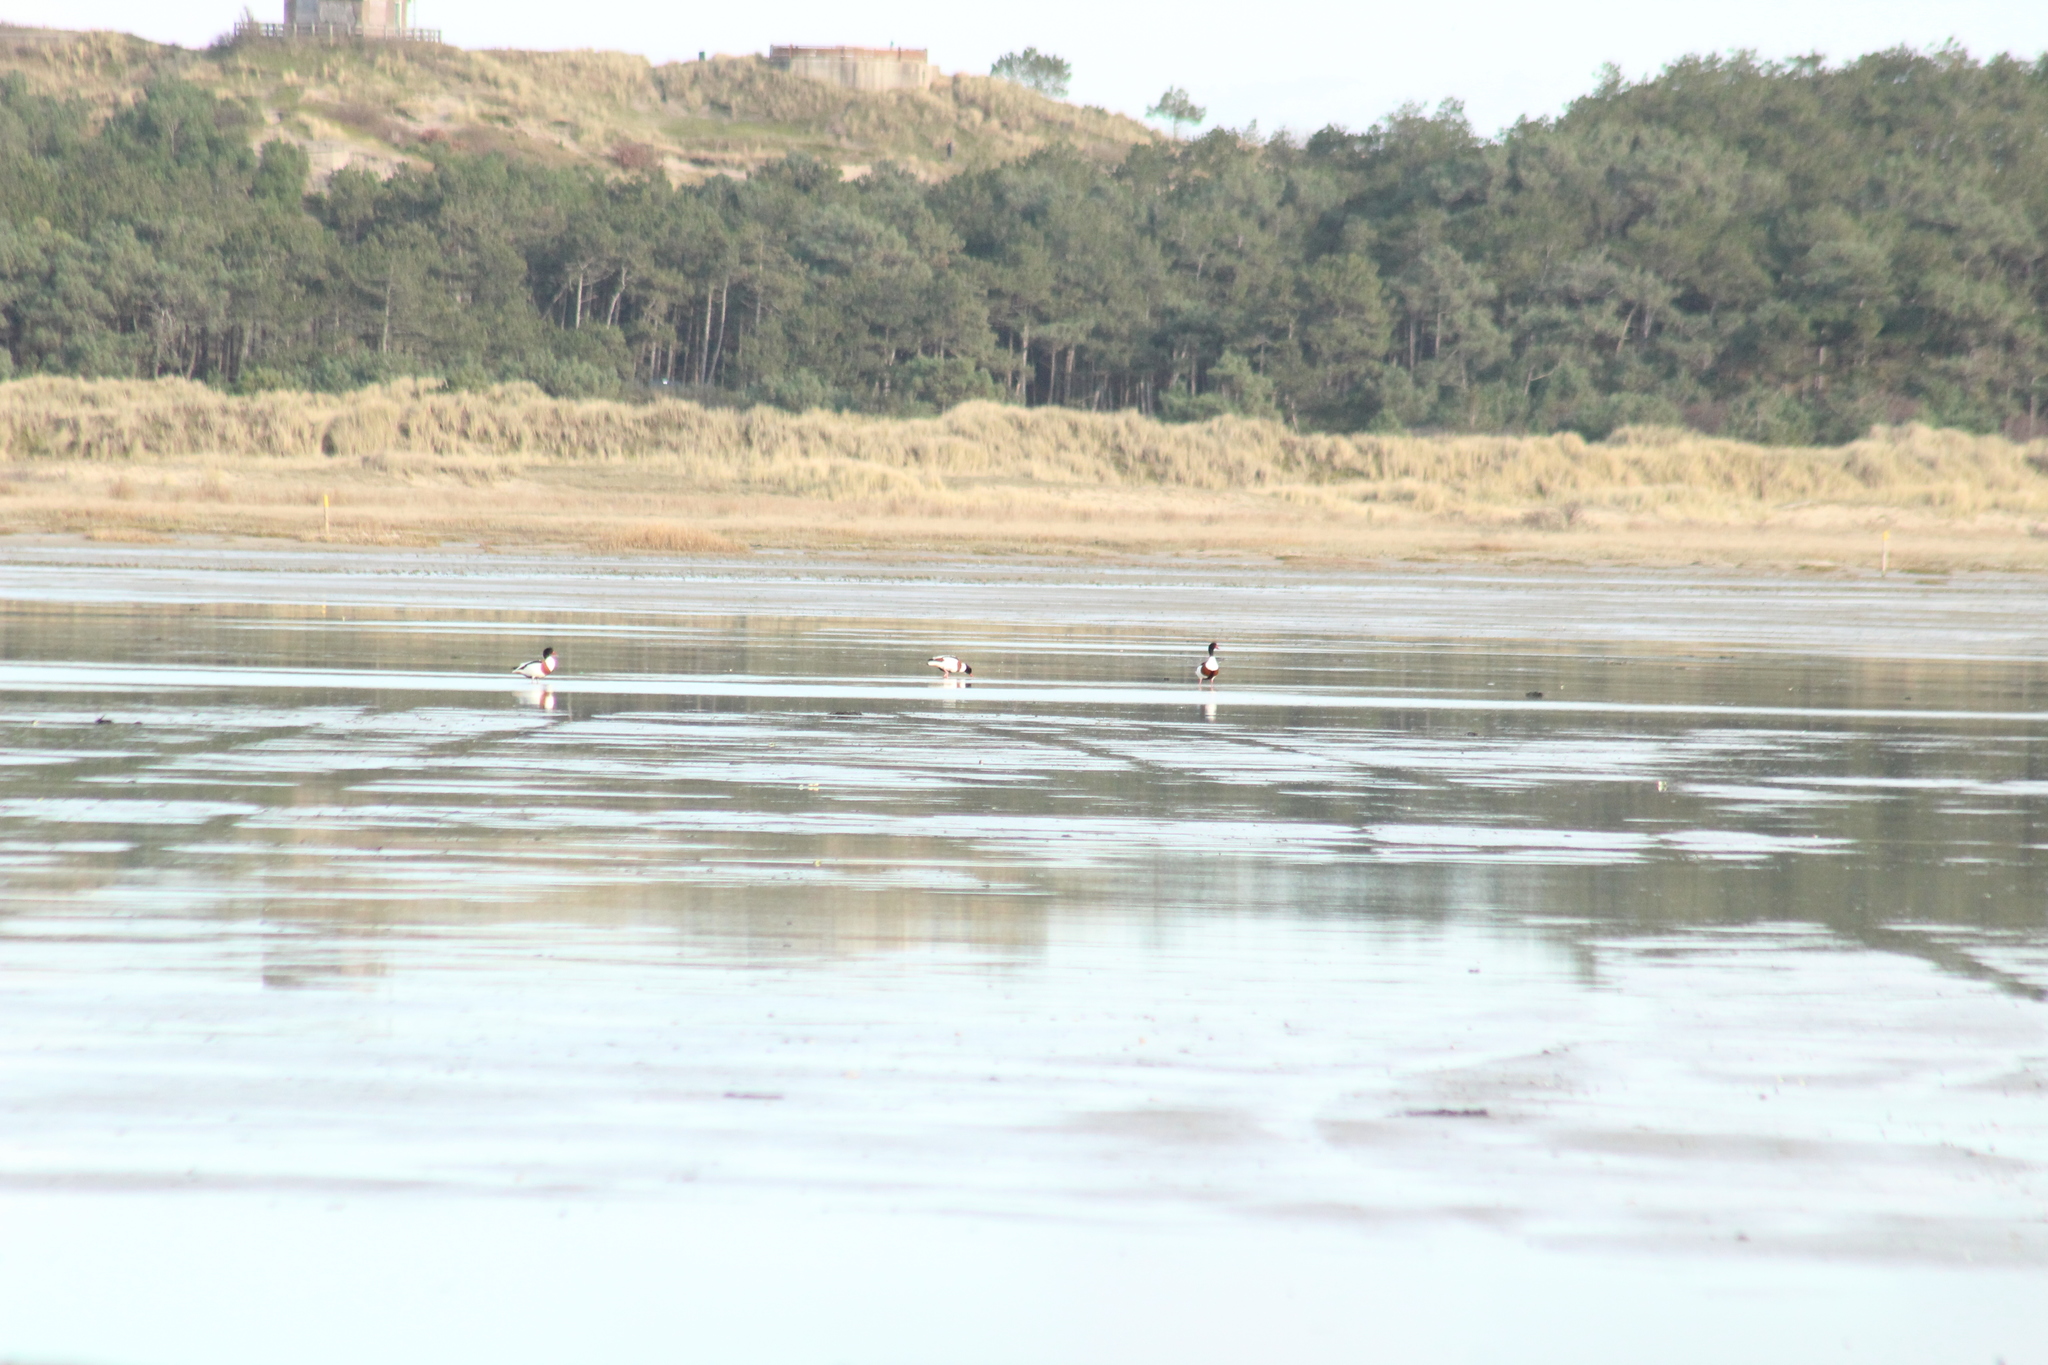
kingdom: Animalia
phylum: Chordata
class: Aves
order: Anseriformes
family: Anatidae
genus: Tadorna
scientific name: Tadorna tadorna
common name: Common shelduck
